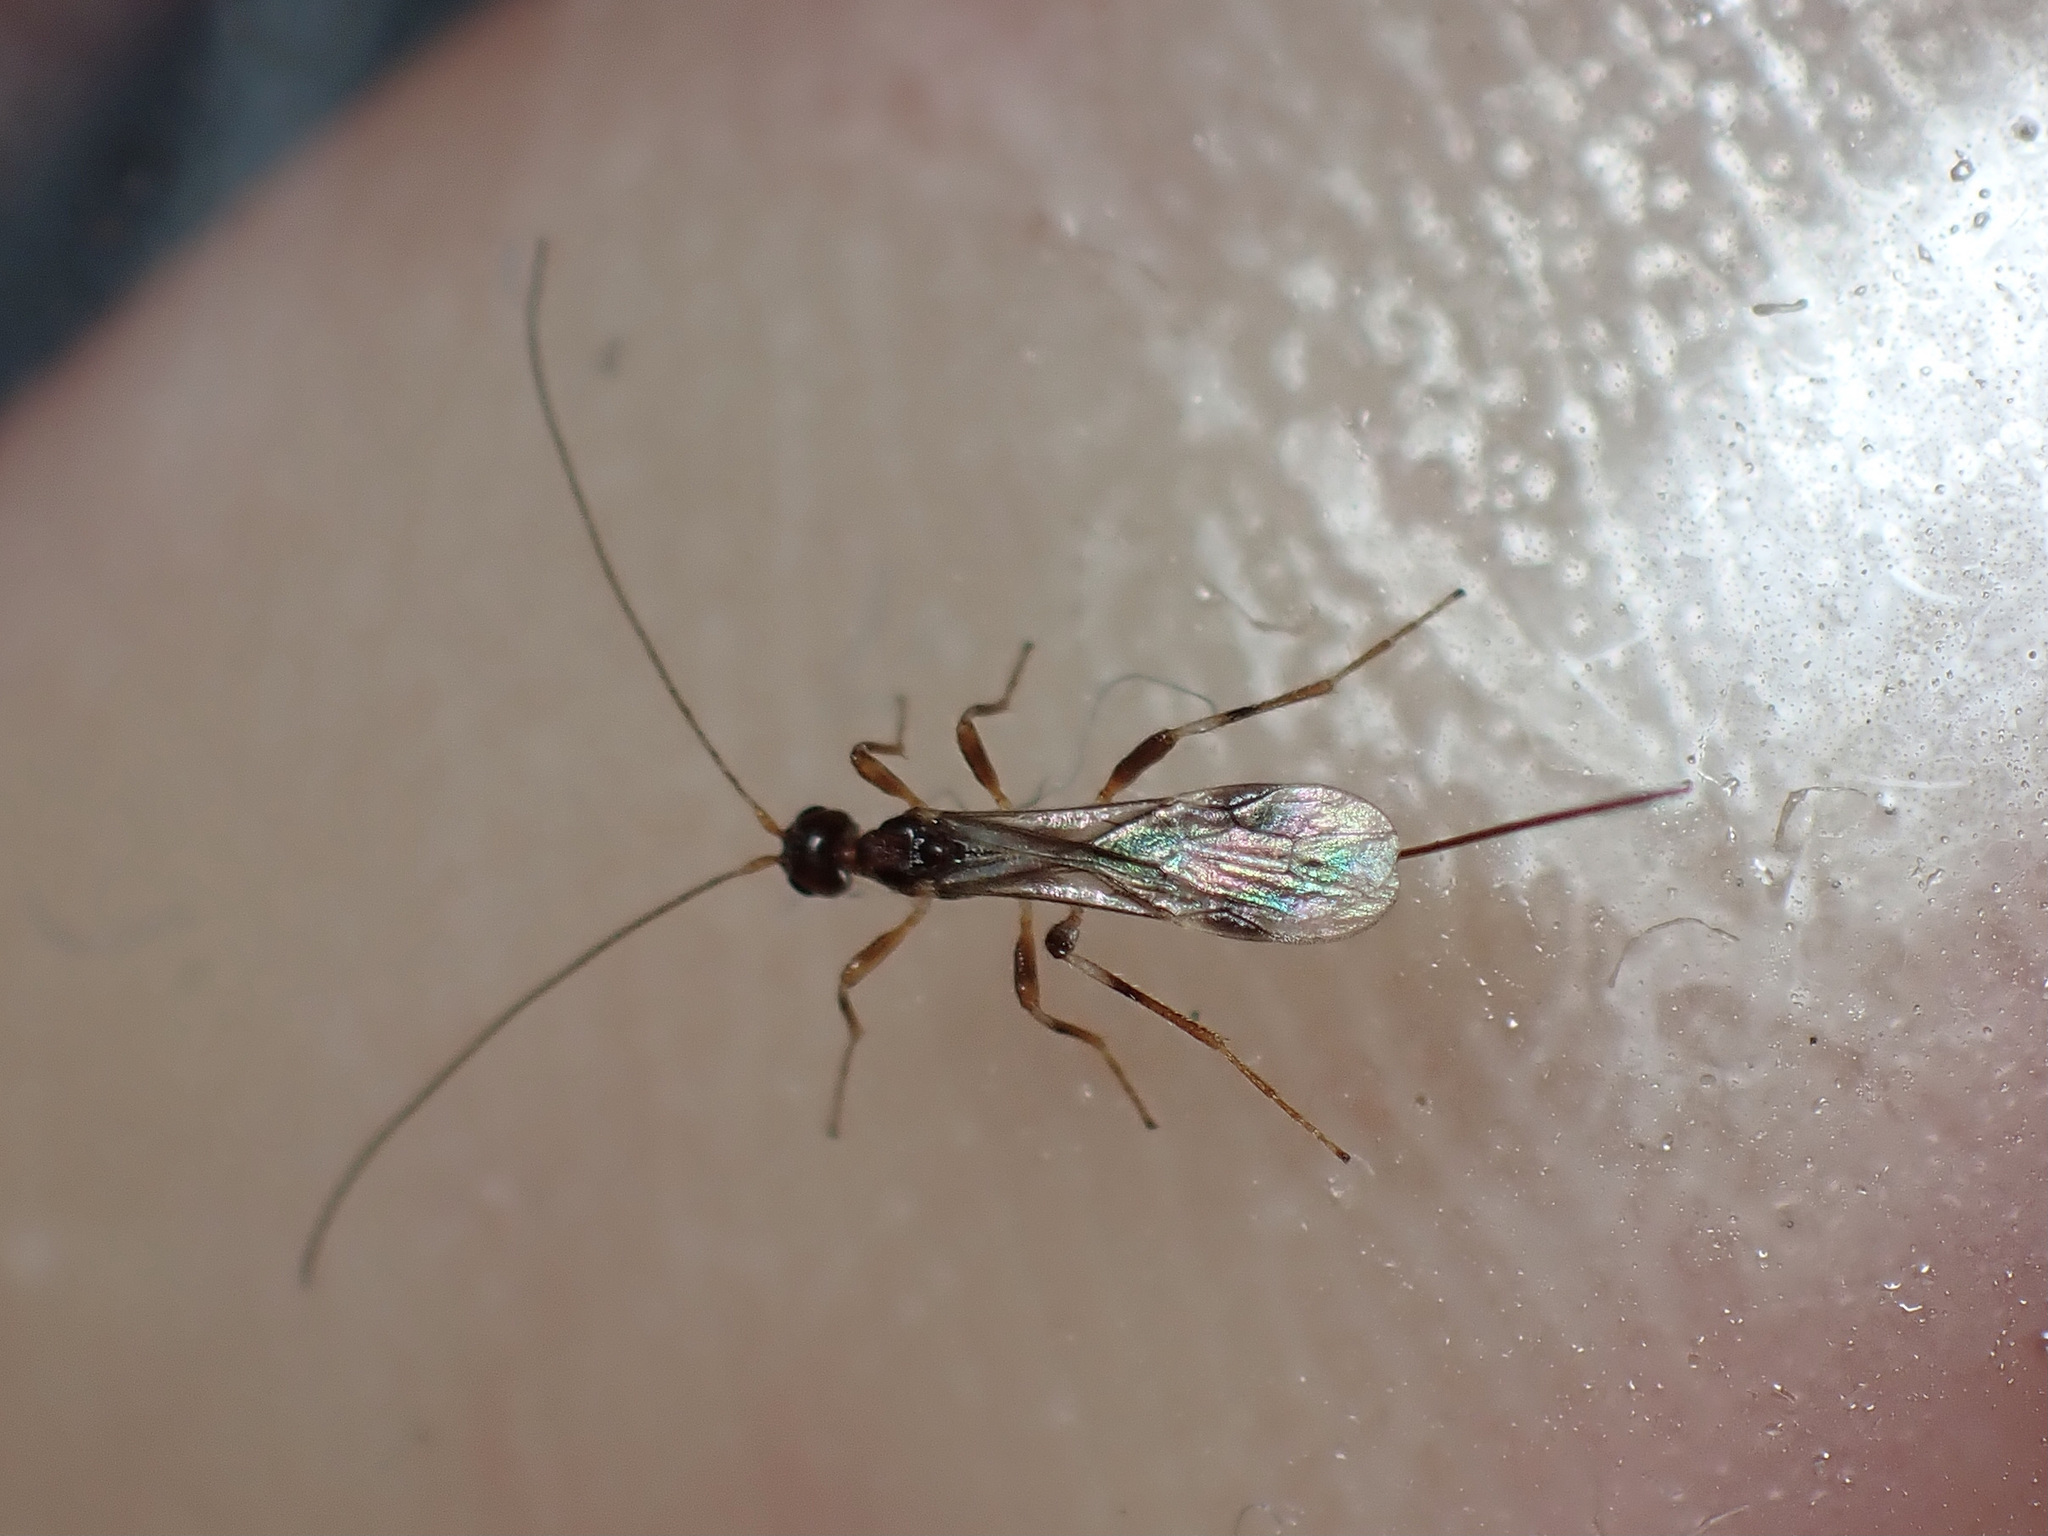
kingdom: Animalia
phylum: Arthropoda
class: Insecta
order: Hymenoptera
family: Braconidae
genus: Spathius
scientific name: Spathius exarator
